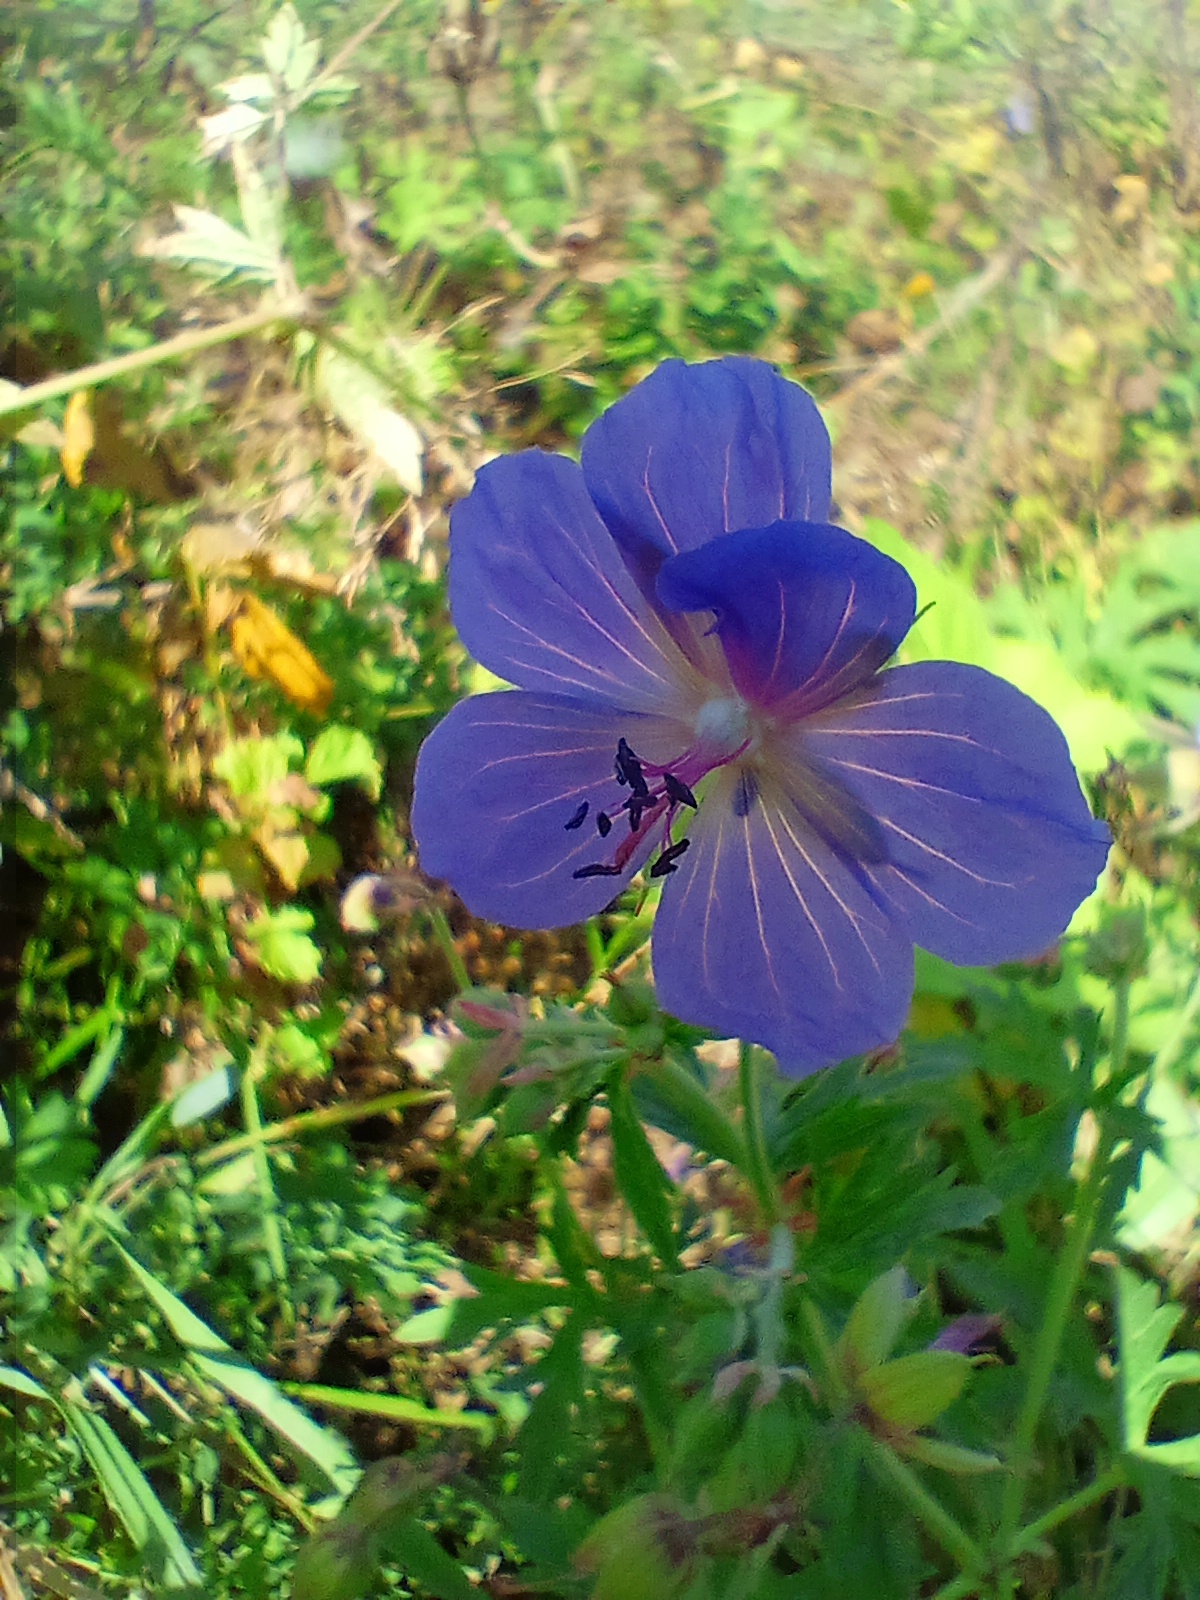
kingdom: Plantae
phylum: Tracheophyta
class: Magnoliopsida
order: Geraniales
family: Geraniaceae
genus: Geranium
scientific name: Geranium pratense
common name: Meadow crane's-bill
